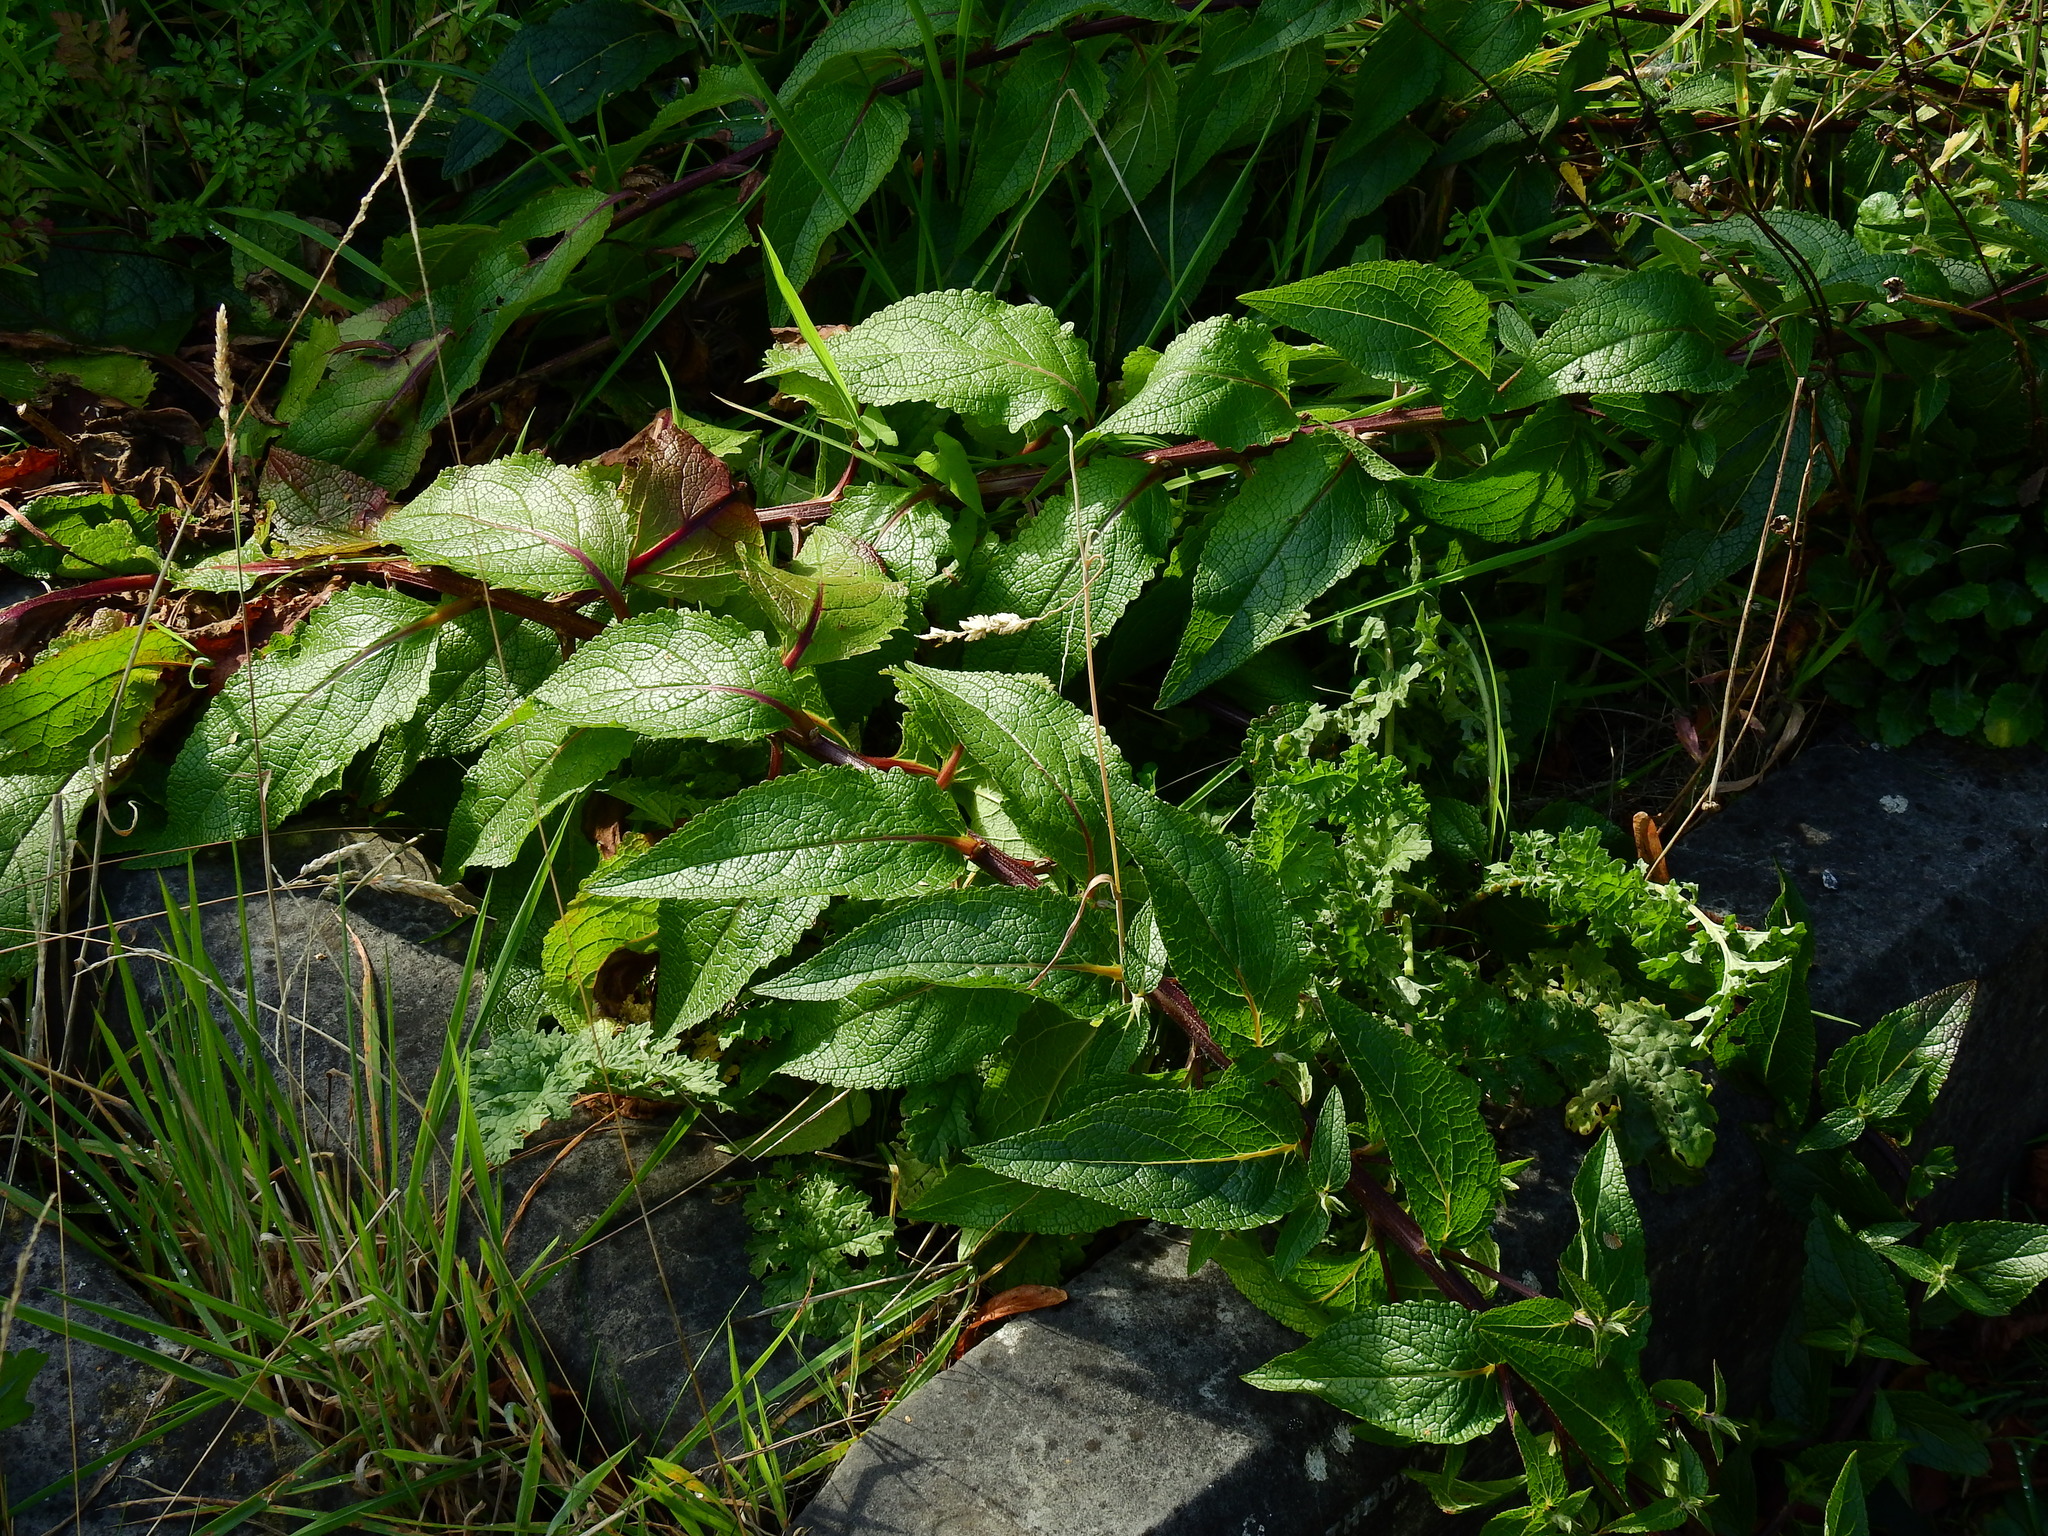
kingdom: Plantae
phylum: Tracheophyta
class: Magnoliopsida
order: Lamiales
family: Scrophulariaceae
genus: Verbascum
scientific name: Verbascum chaixii
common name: Nettle-leaved mullein
